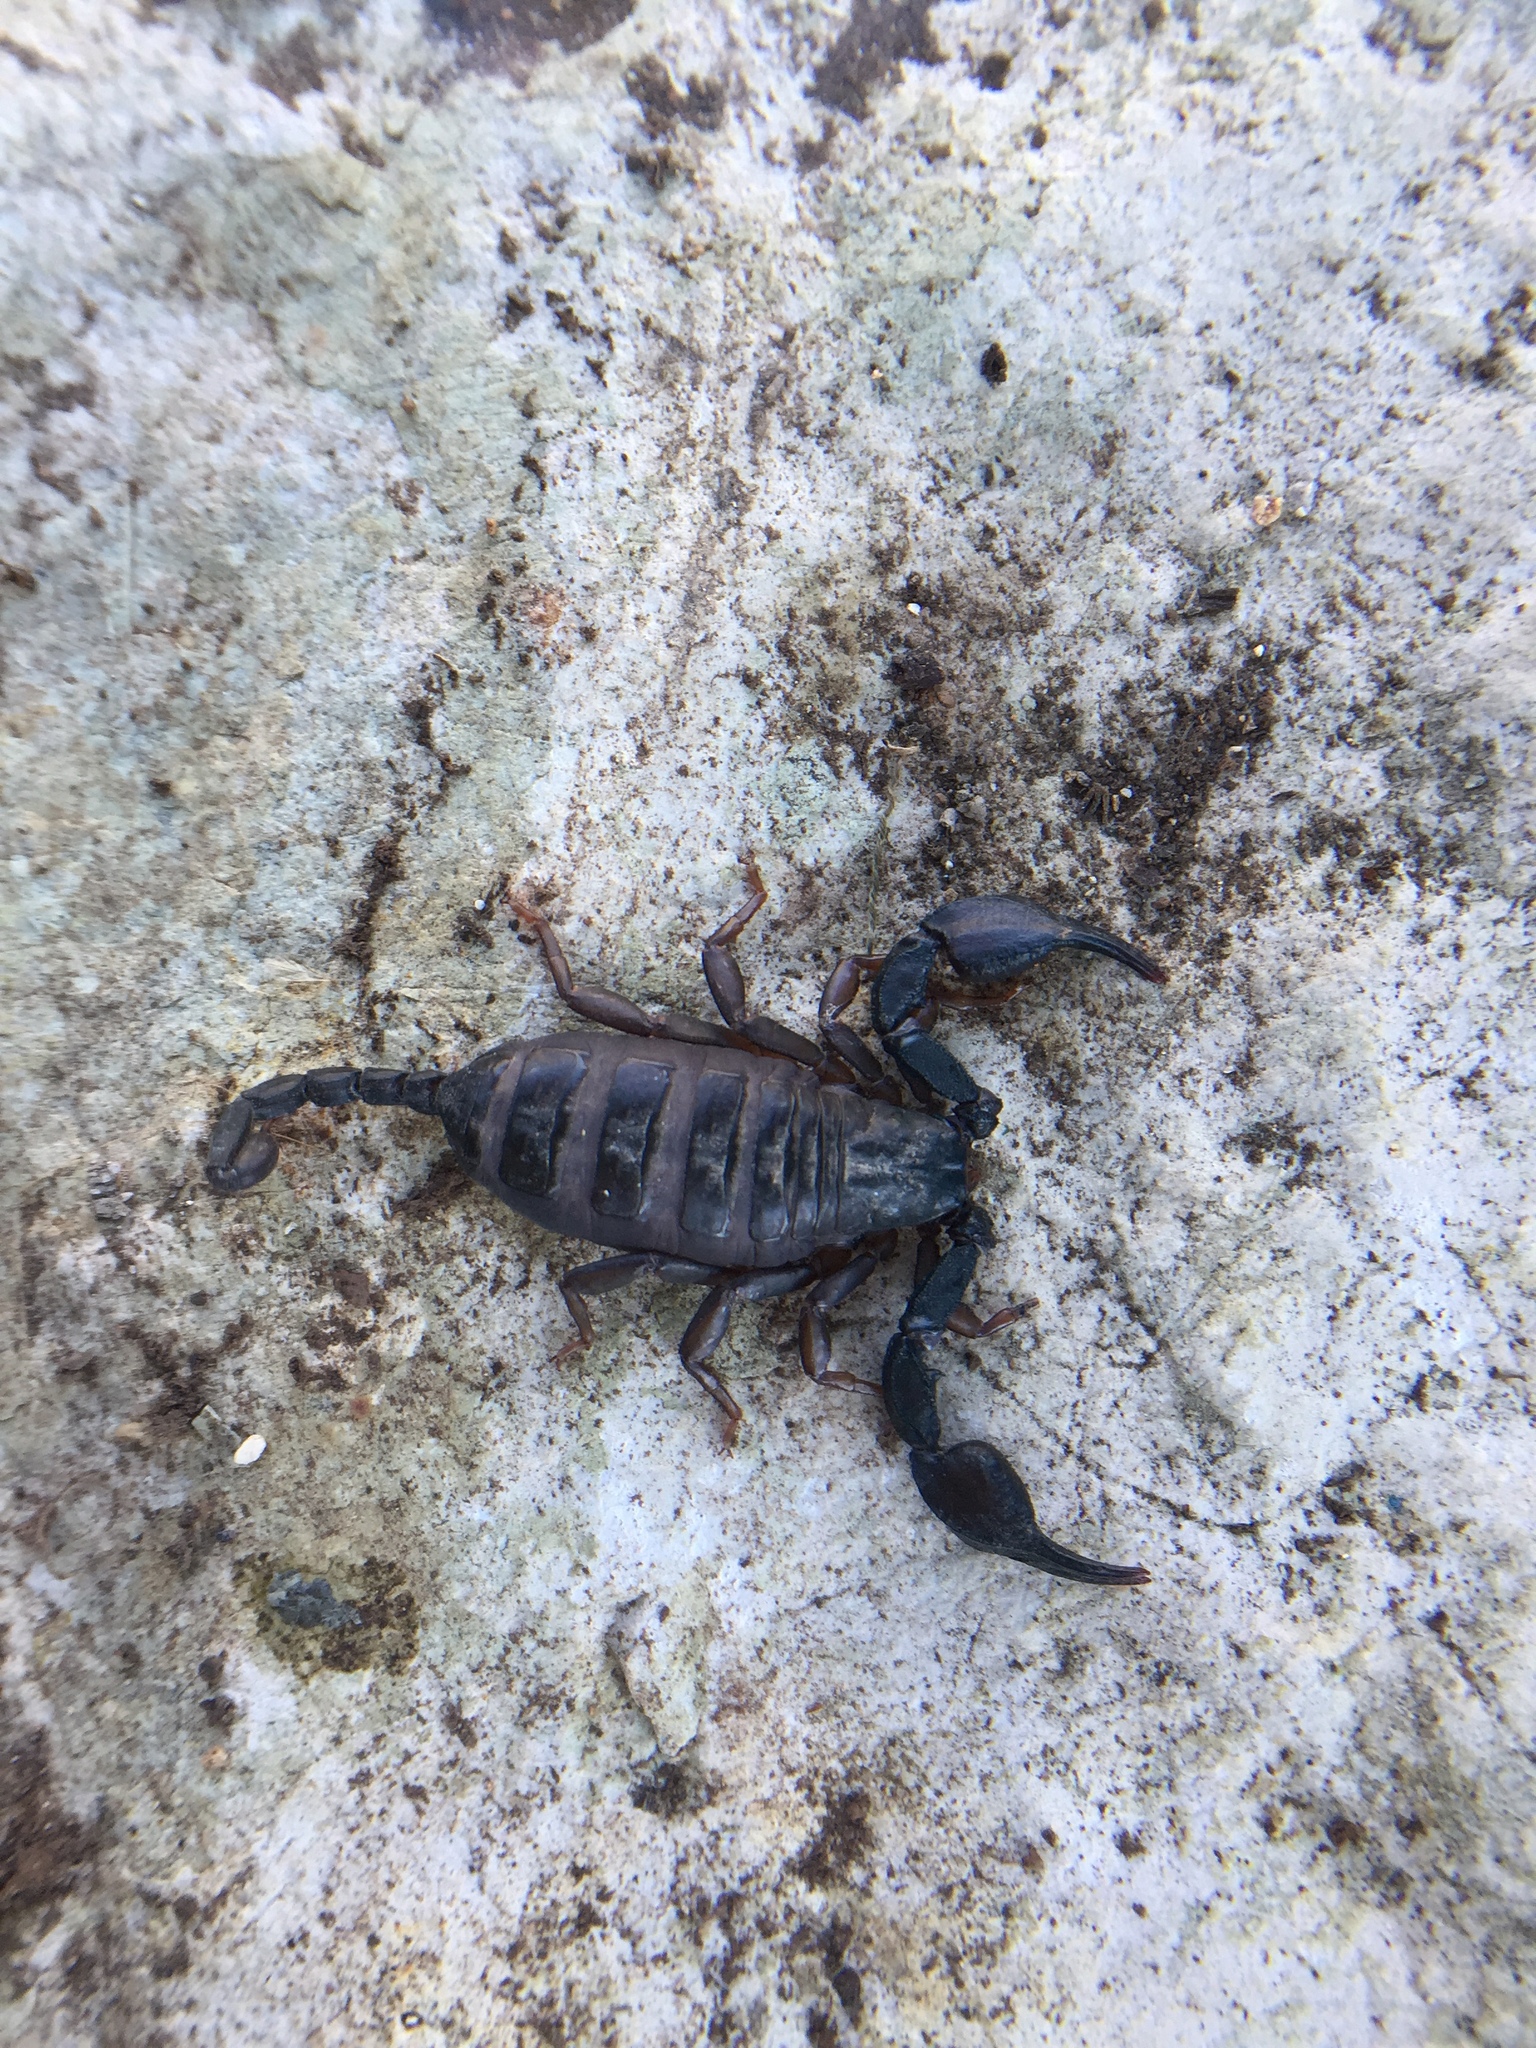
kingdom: Animalia
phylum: Arthropoda
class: Arachnida
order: Scorpiones
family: Euscorpiidae
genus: Euscorpius
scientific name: Euscorpius
